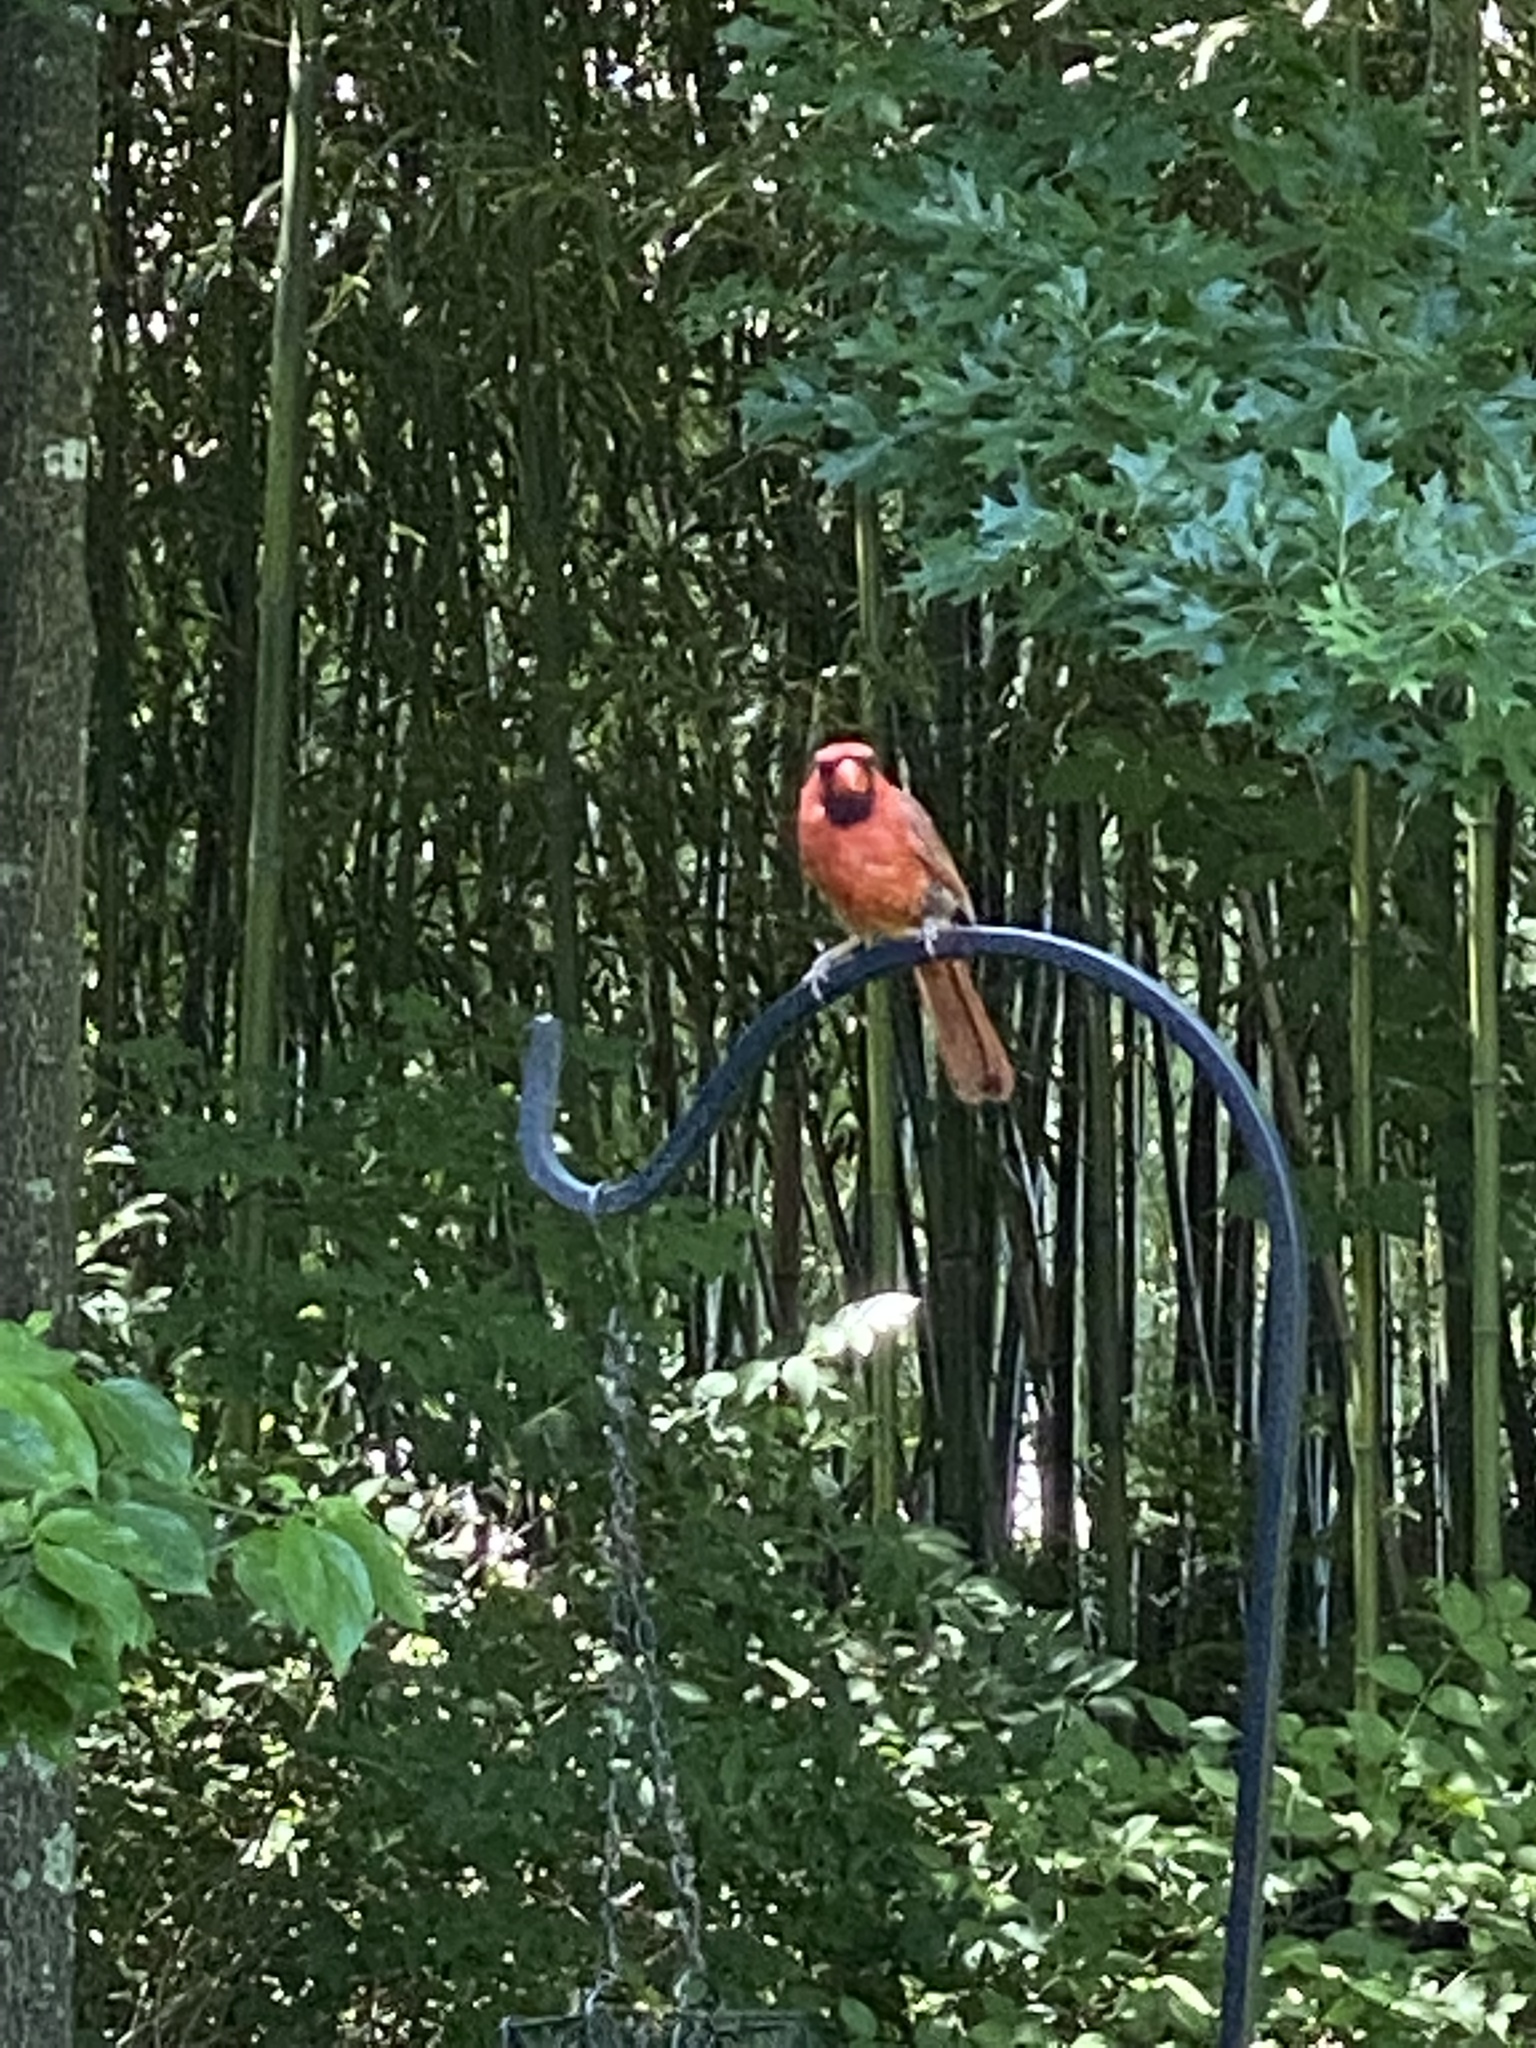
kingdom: Animalia
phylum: Chordata
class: Aves
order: Passeriformes
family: Cardinalidae
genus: Cardinalis
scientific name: Cardinalis cardinalis
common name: Northern cardinal
